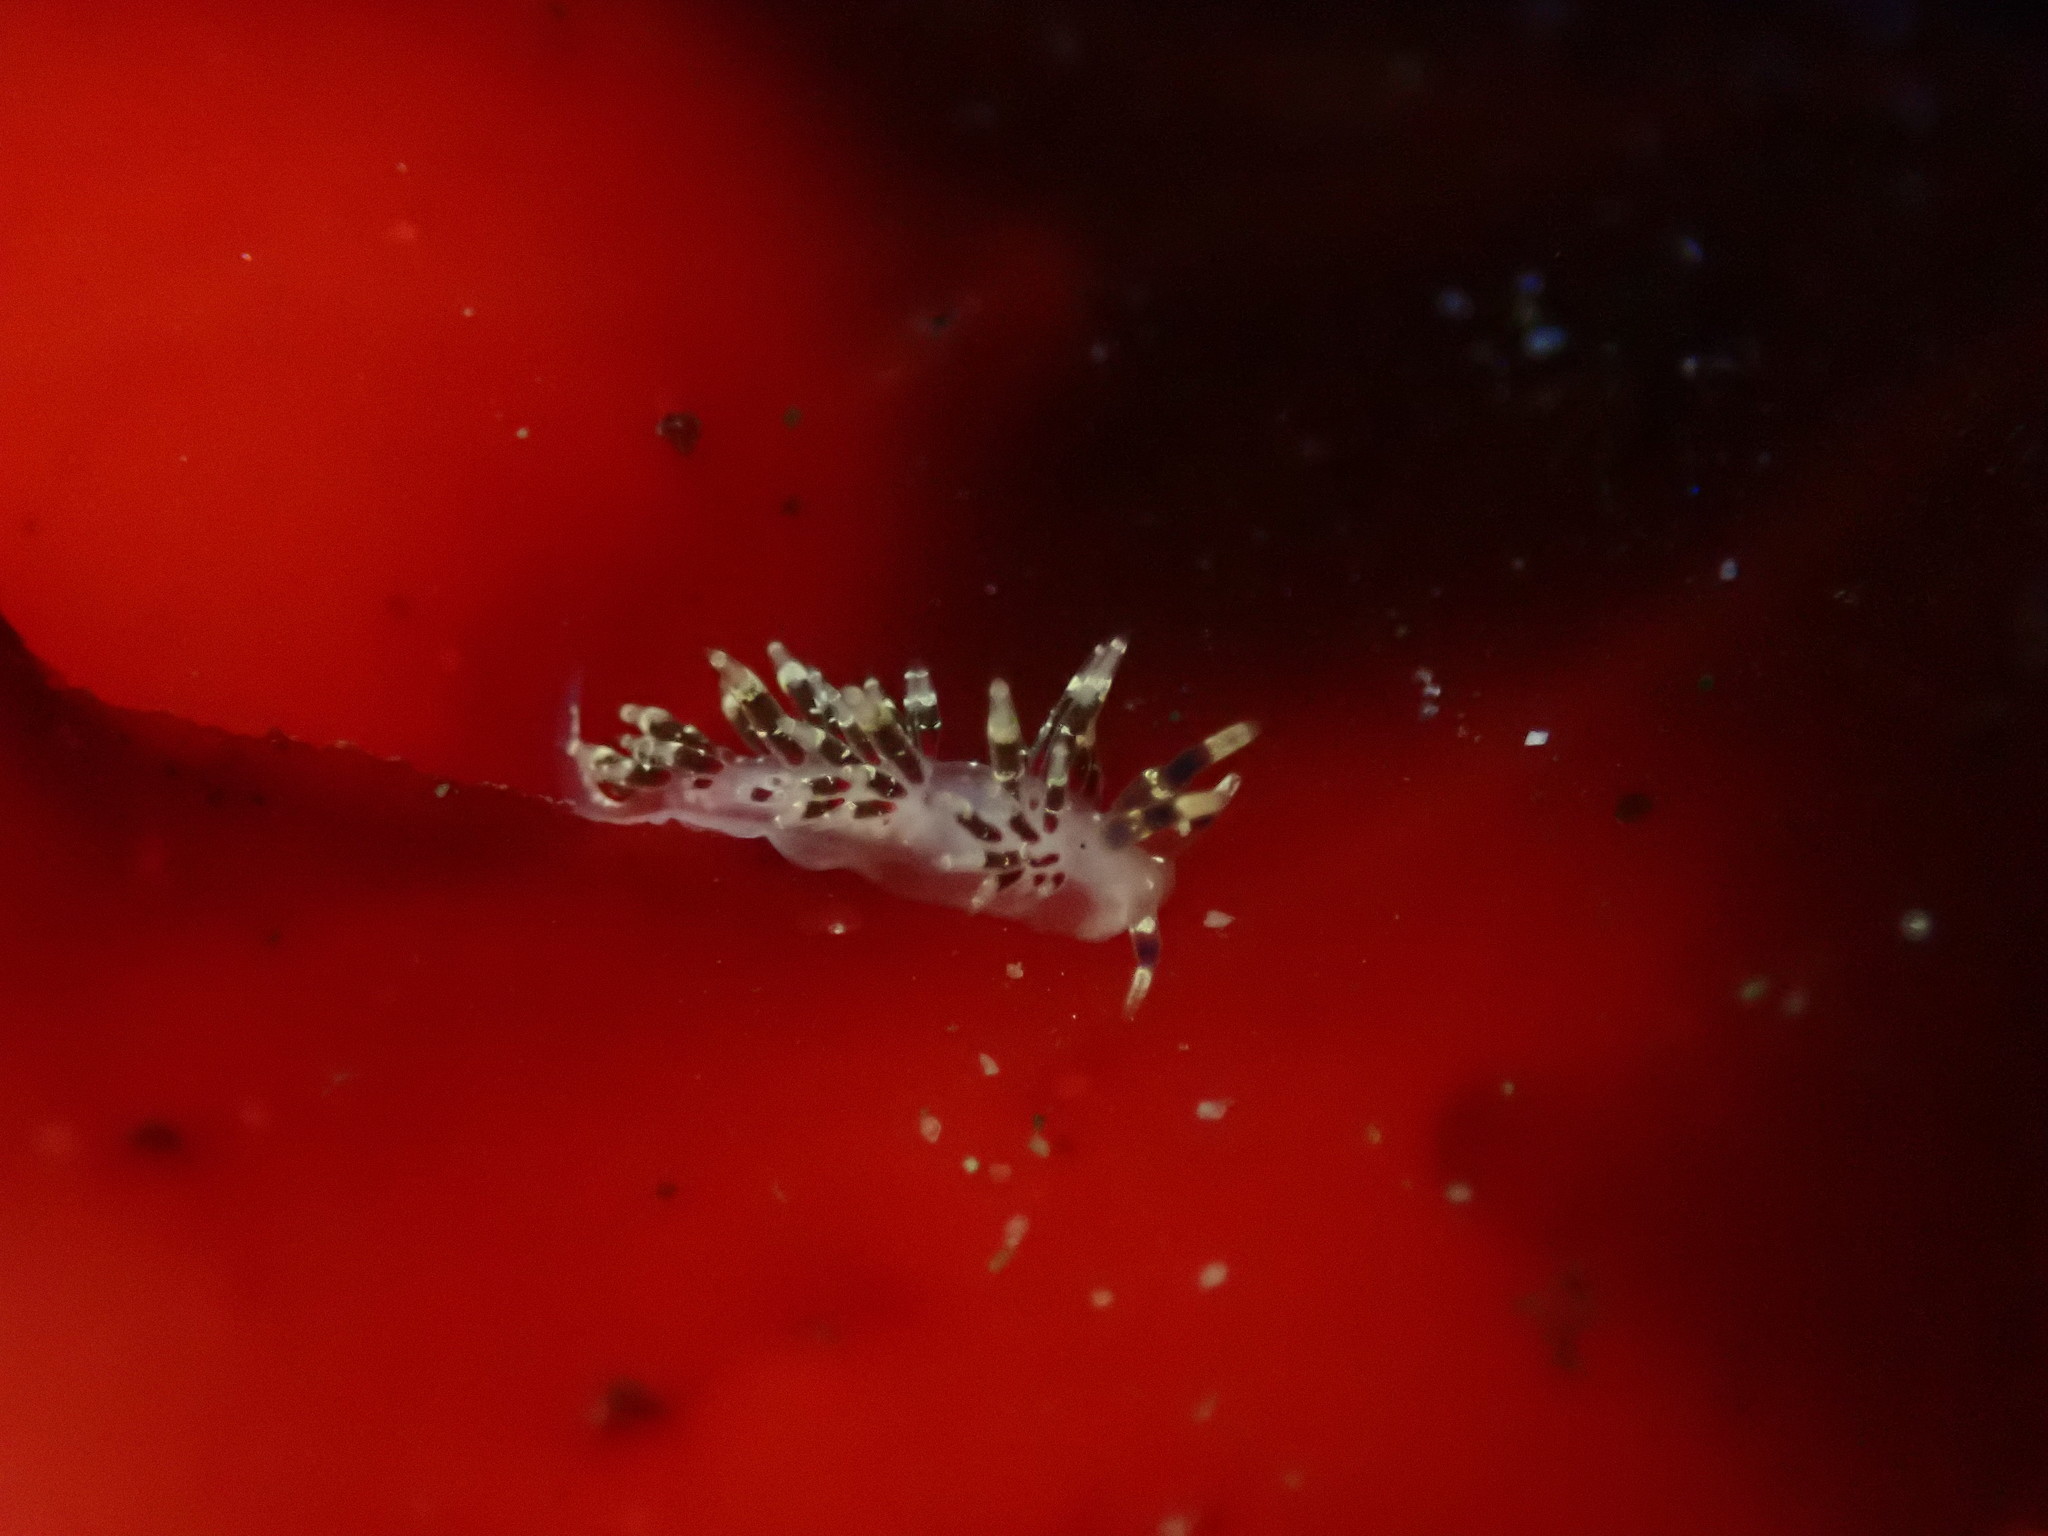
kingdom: Animalia
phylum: Mollusca
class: Gastropoda
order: Nudibranchia
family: Abronicidae
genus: Abronica
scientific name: Abronica abronia
